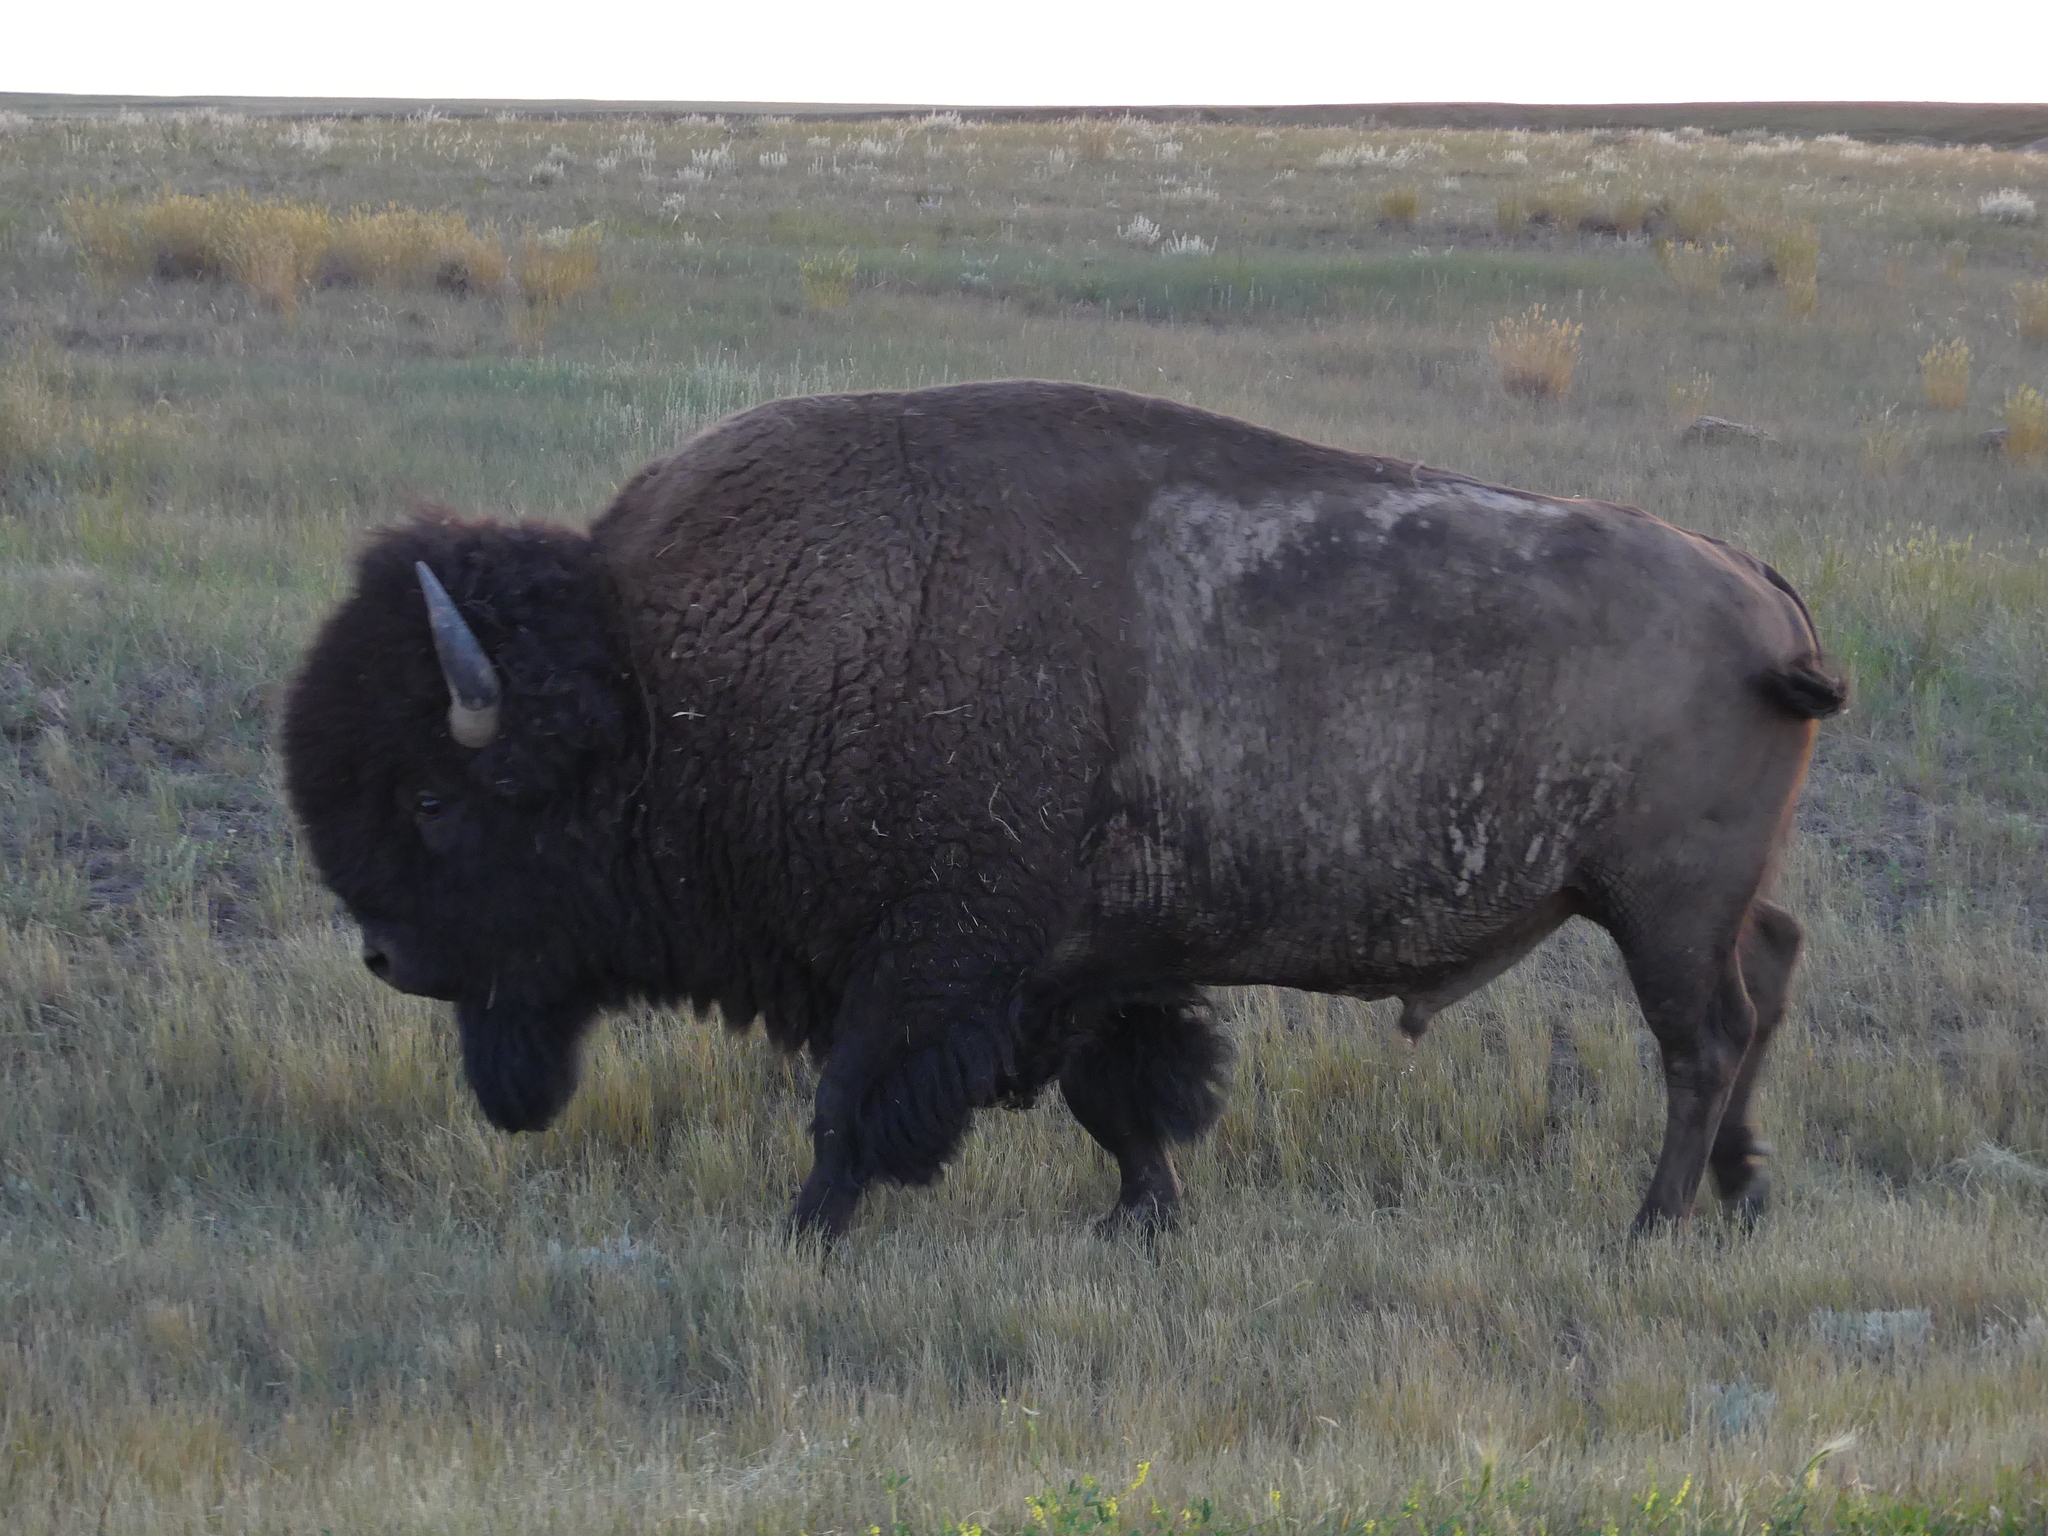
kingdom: Animalia
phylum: Chordata
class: Mammalia
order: Artiodactyla
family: Bovidae
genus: Bison
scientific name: Bison bison
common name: American bison
